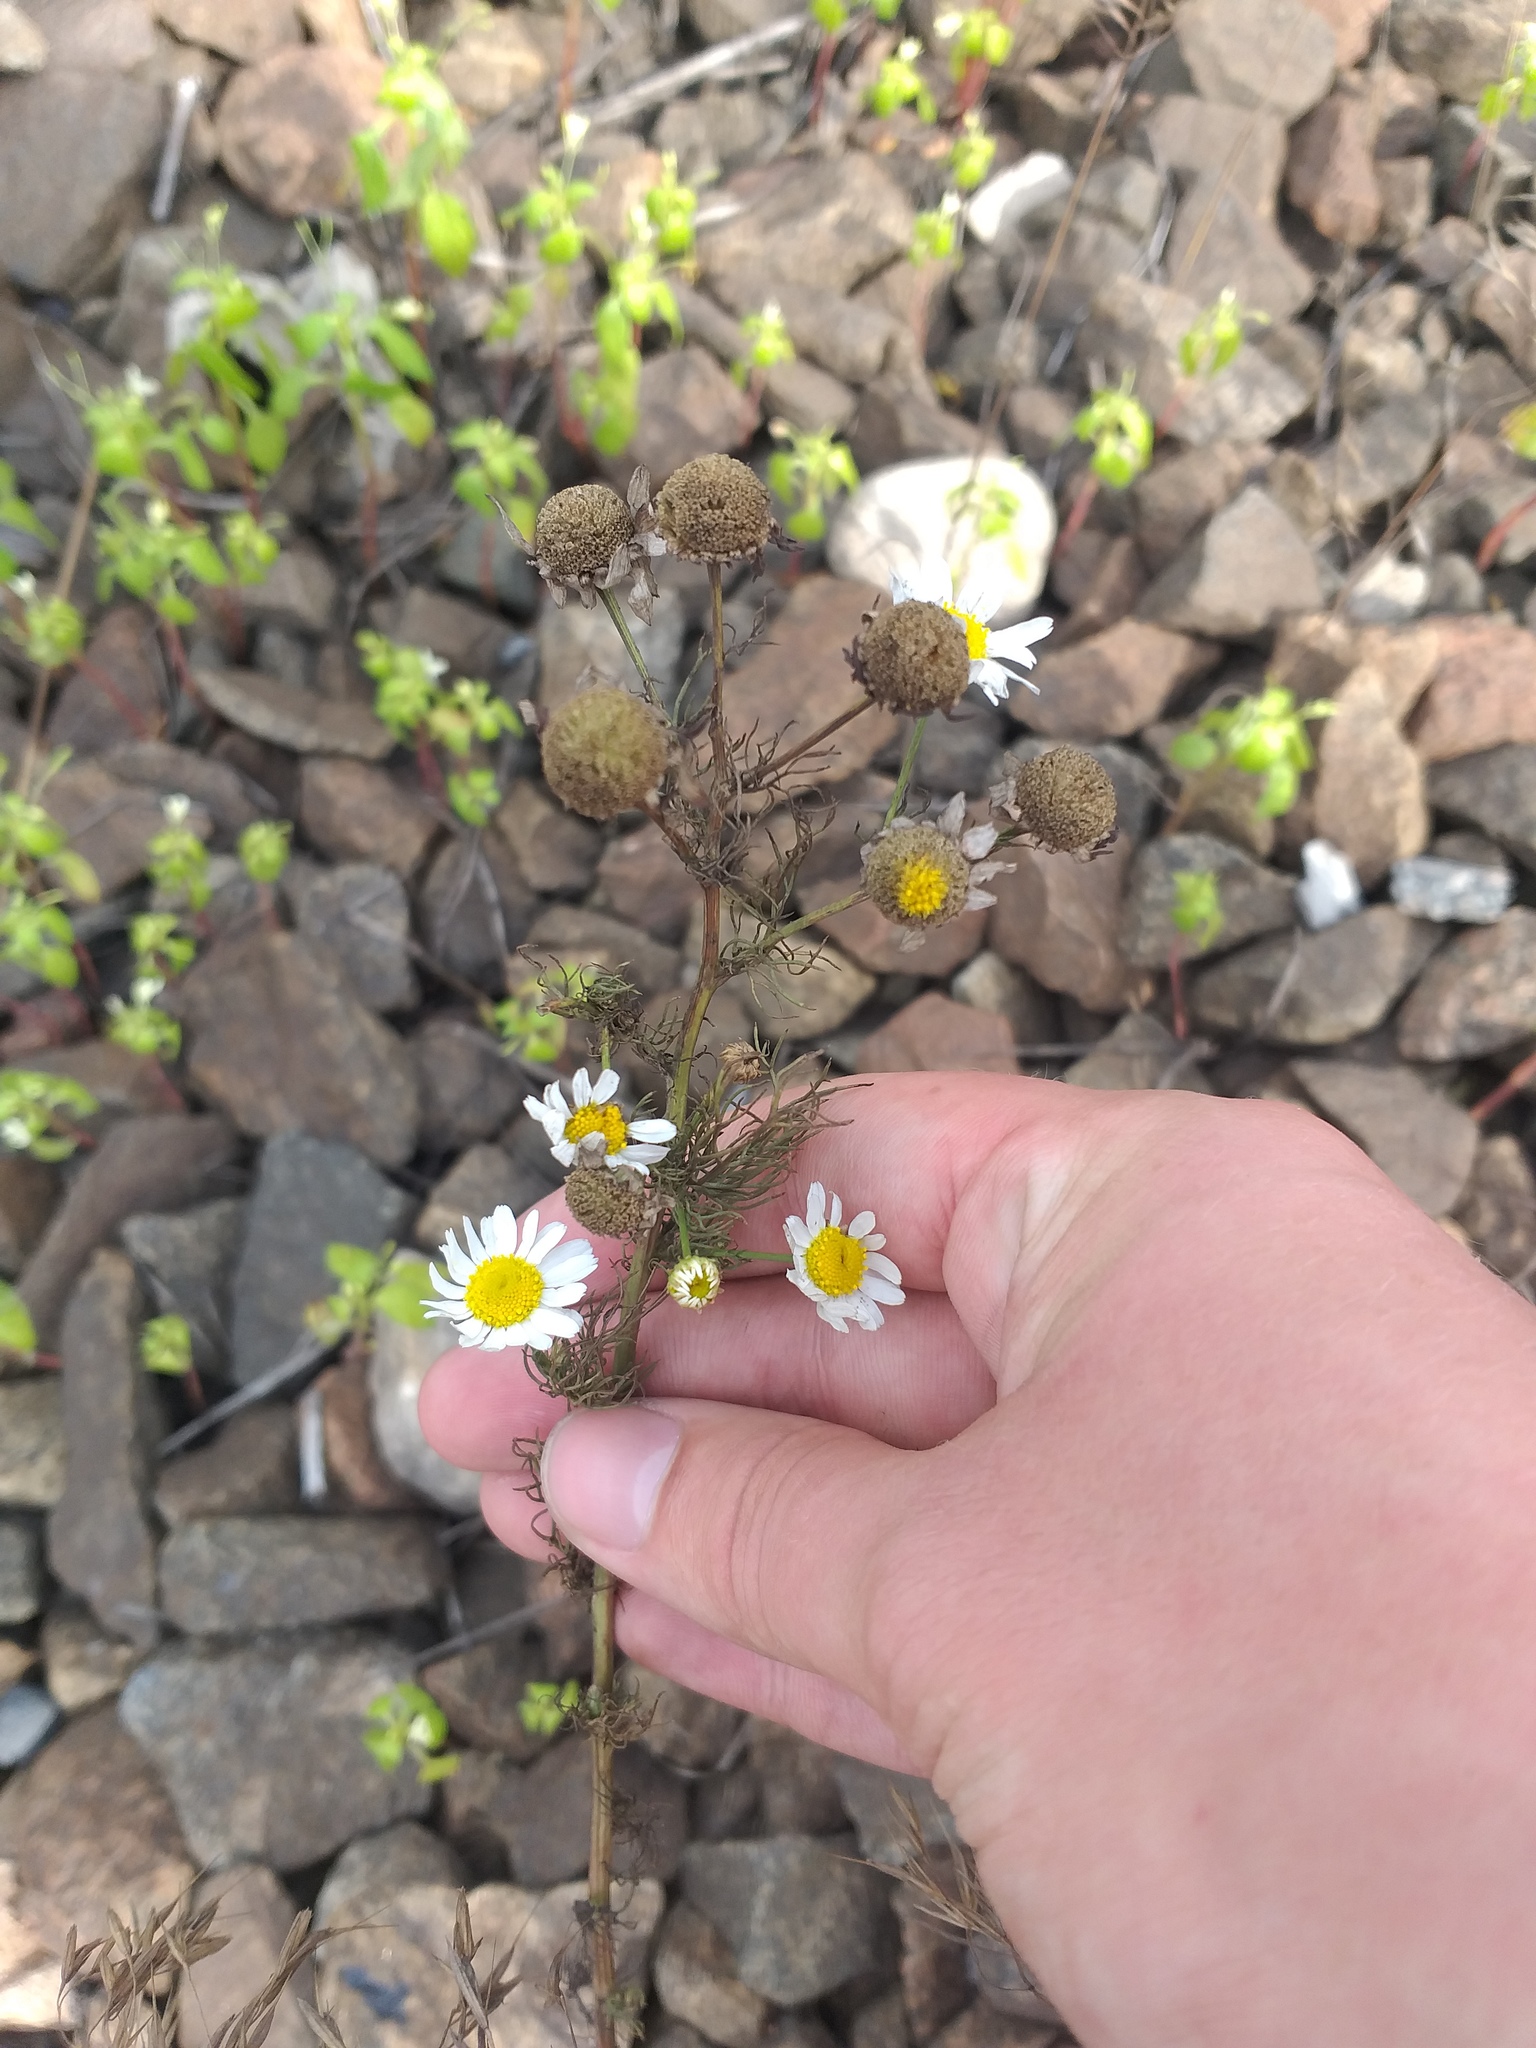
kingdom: Plantae
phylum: Tracheophyta
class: Magnoliopsida
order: Asterales
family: Asteraceae
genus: Tripleurospermum
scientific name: Tripleurospermum inodorum
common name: Scentless mayweed
